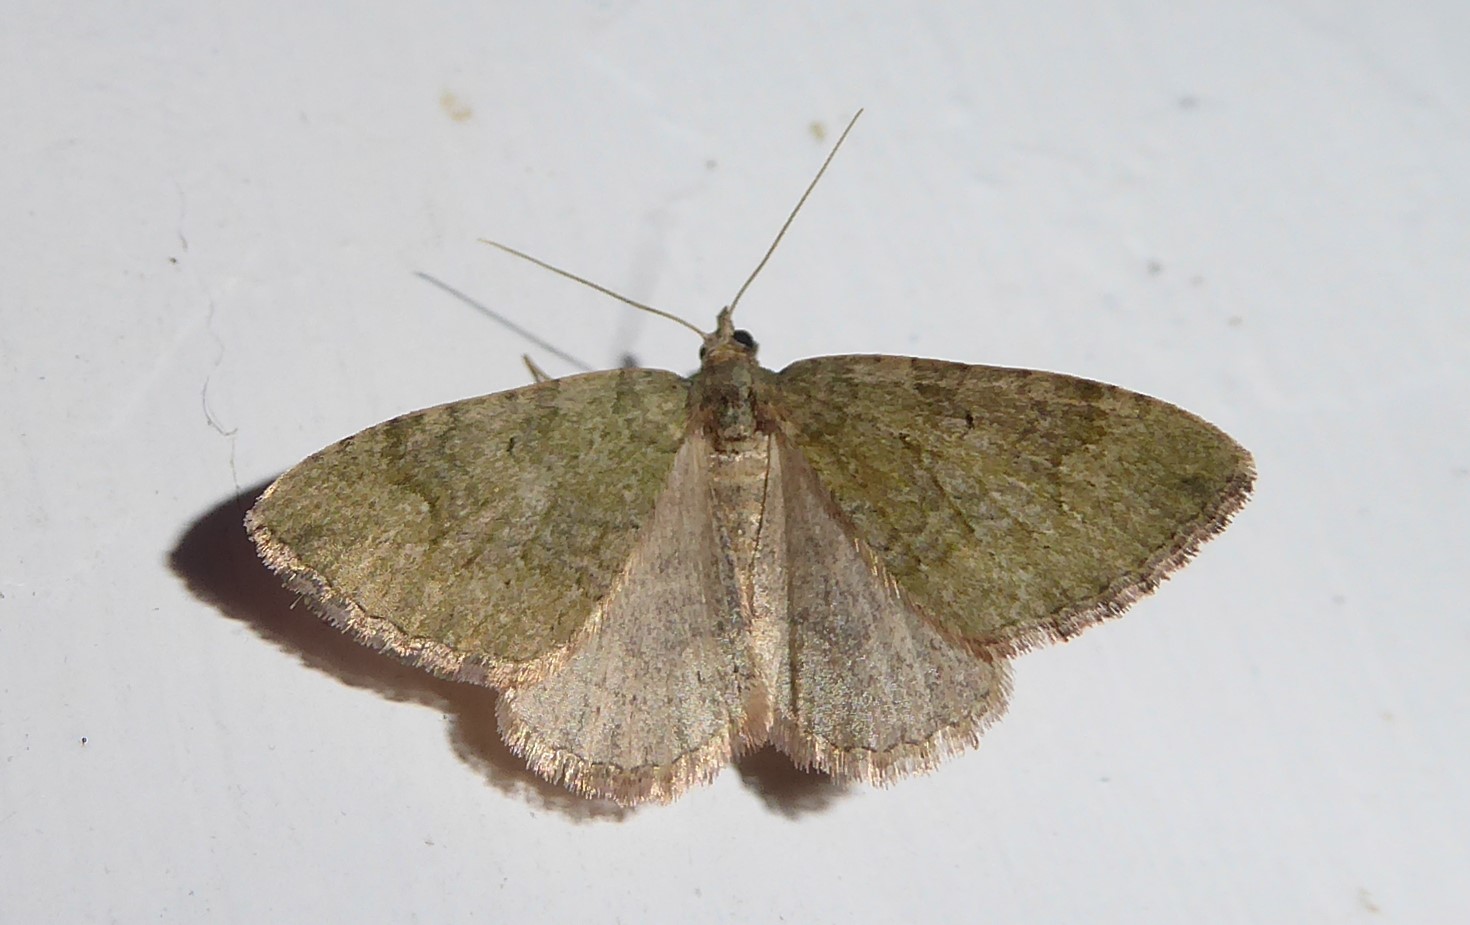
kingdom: Animalia
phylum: Arthropoda
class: Insecta
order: Lepidoptera
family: Geometridae
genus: Epyaxa
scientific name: Epyaxa rosearia
